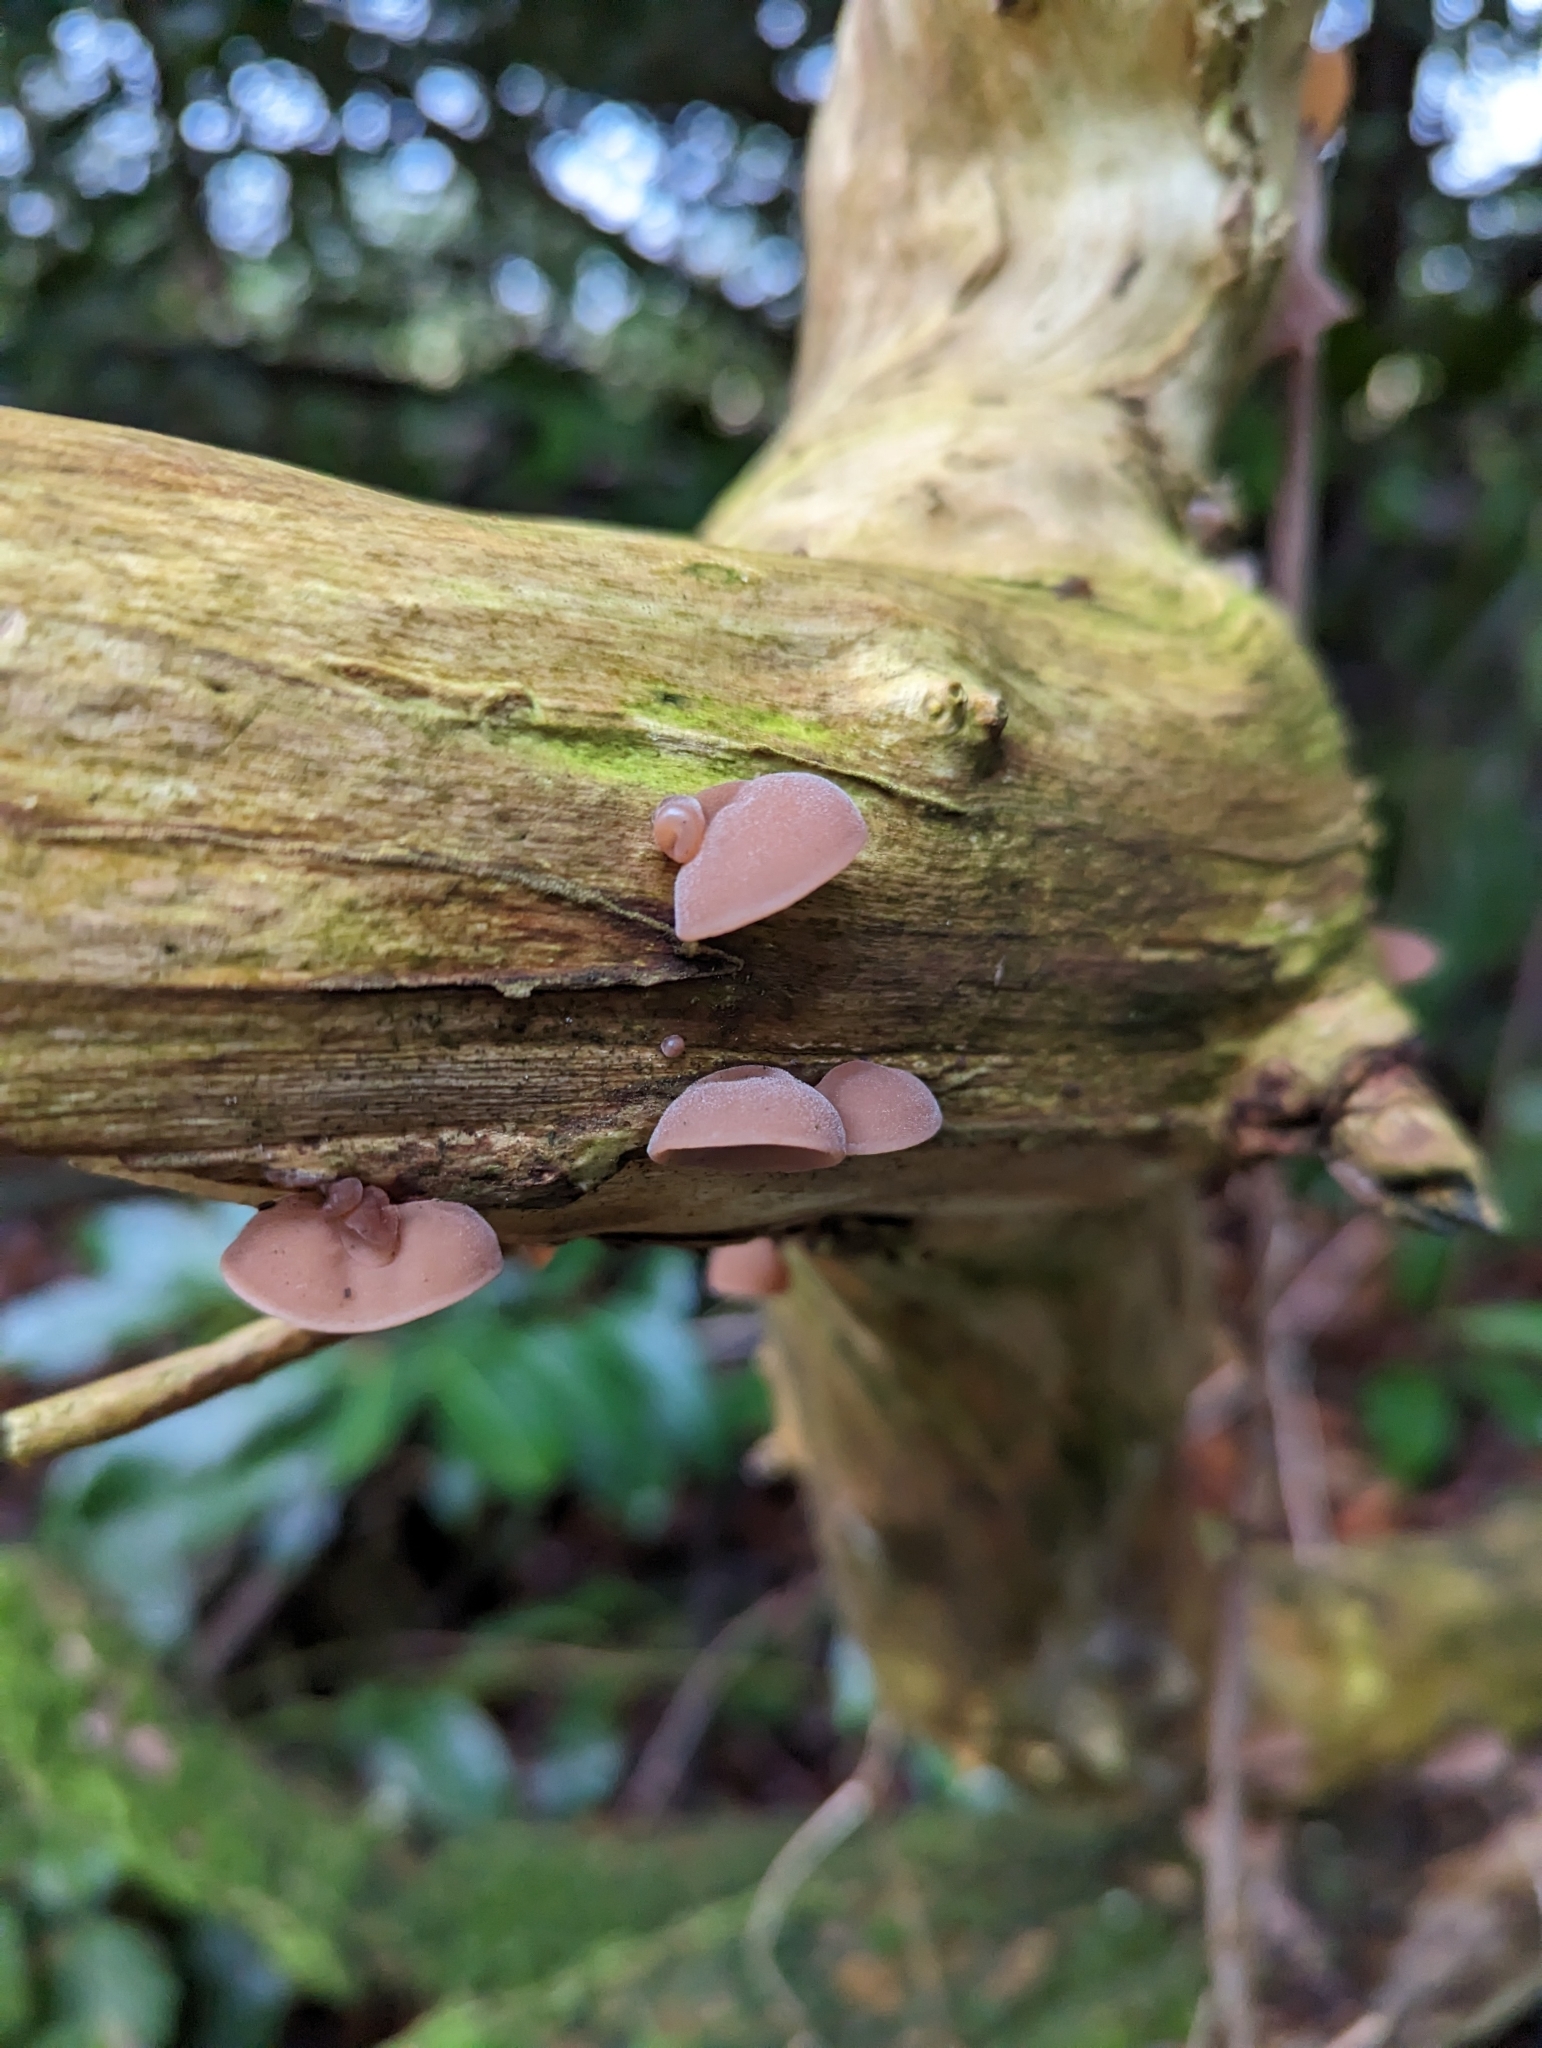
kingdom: Fungi
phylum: Basidiomycota
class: Agaricomycetes
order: Auriculariales
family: Auriculariaceae
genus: Auricularia
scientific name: Auricularia auricula-judae
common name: Jelly ear
